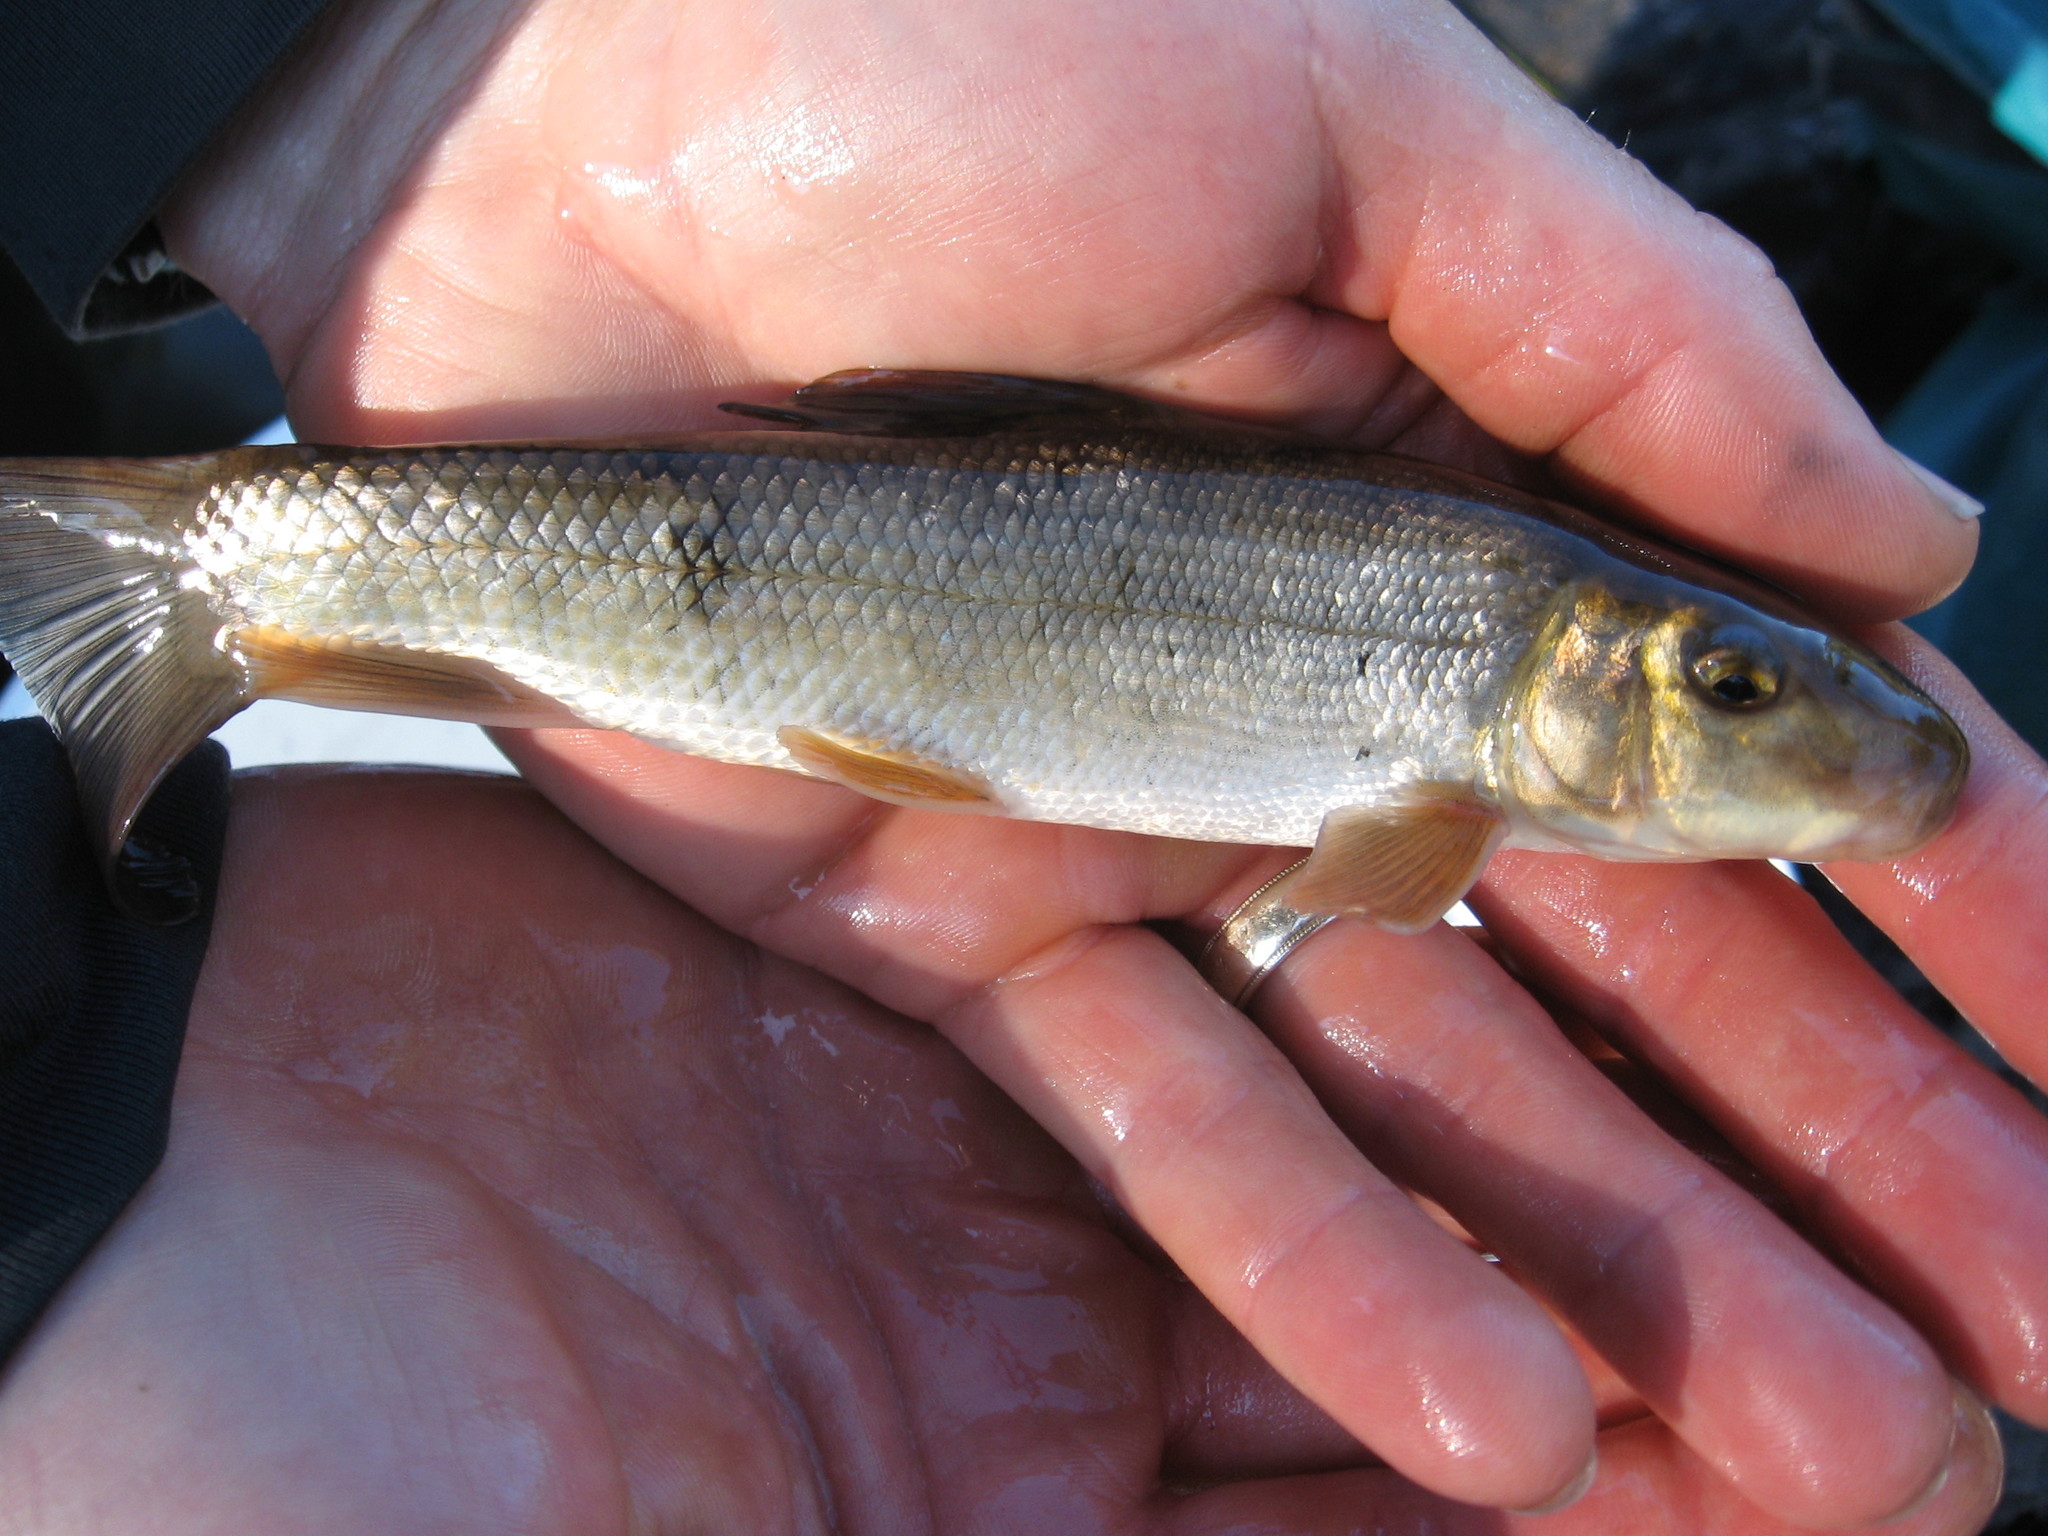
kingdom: Animalia
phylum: Chordata
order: Cypriniformes
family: Catostomidae
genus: Catostomus
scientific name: Catostomus commersonii
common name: White sucker
